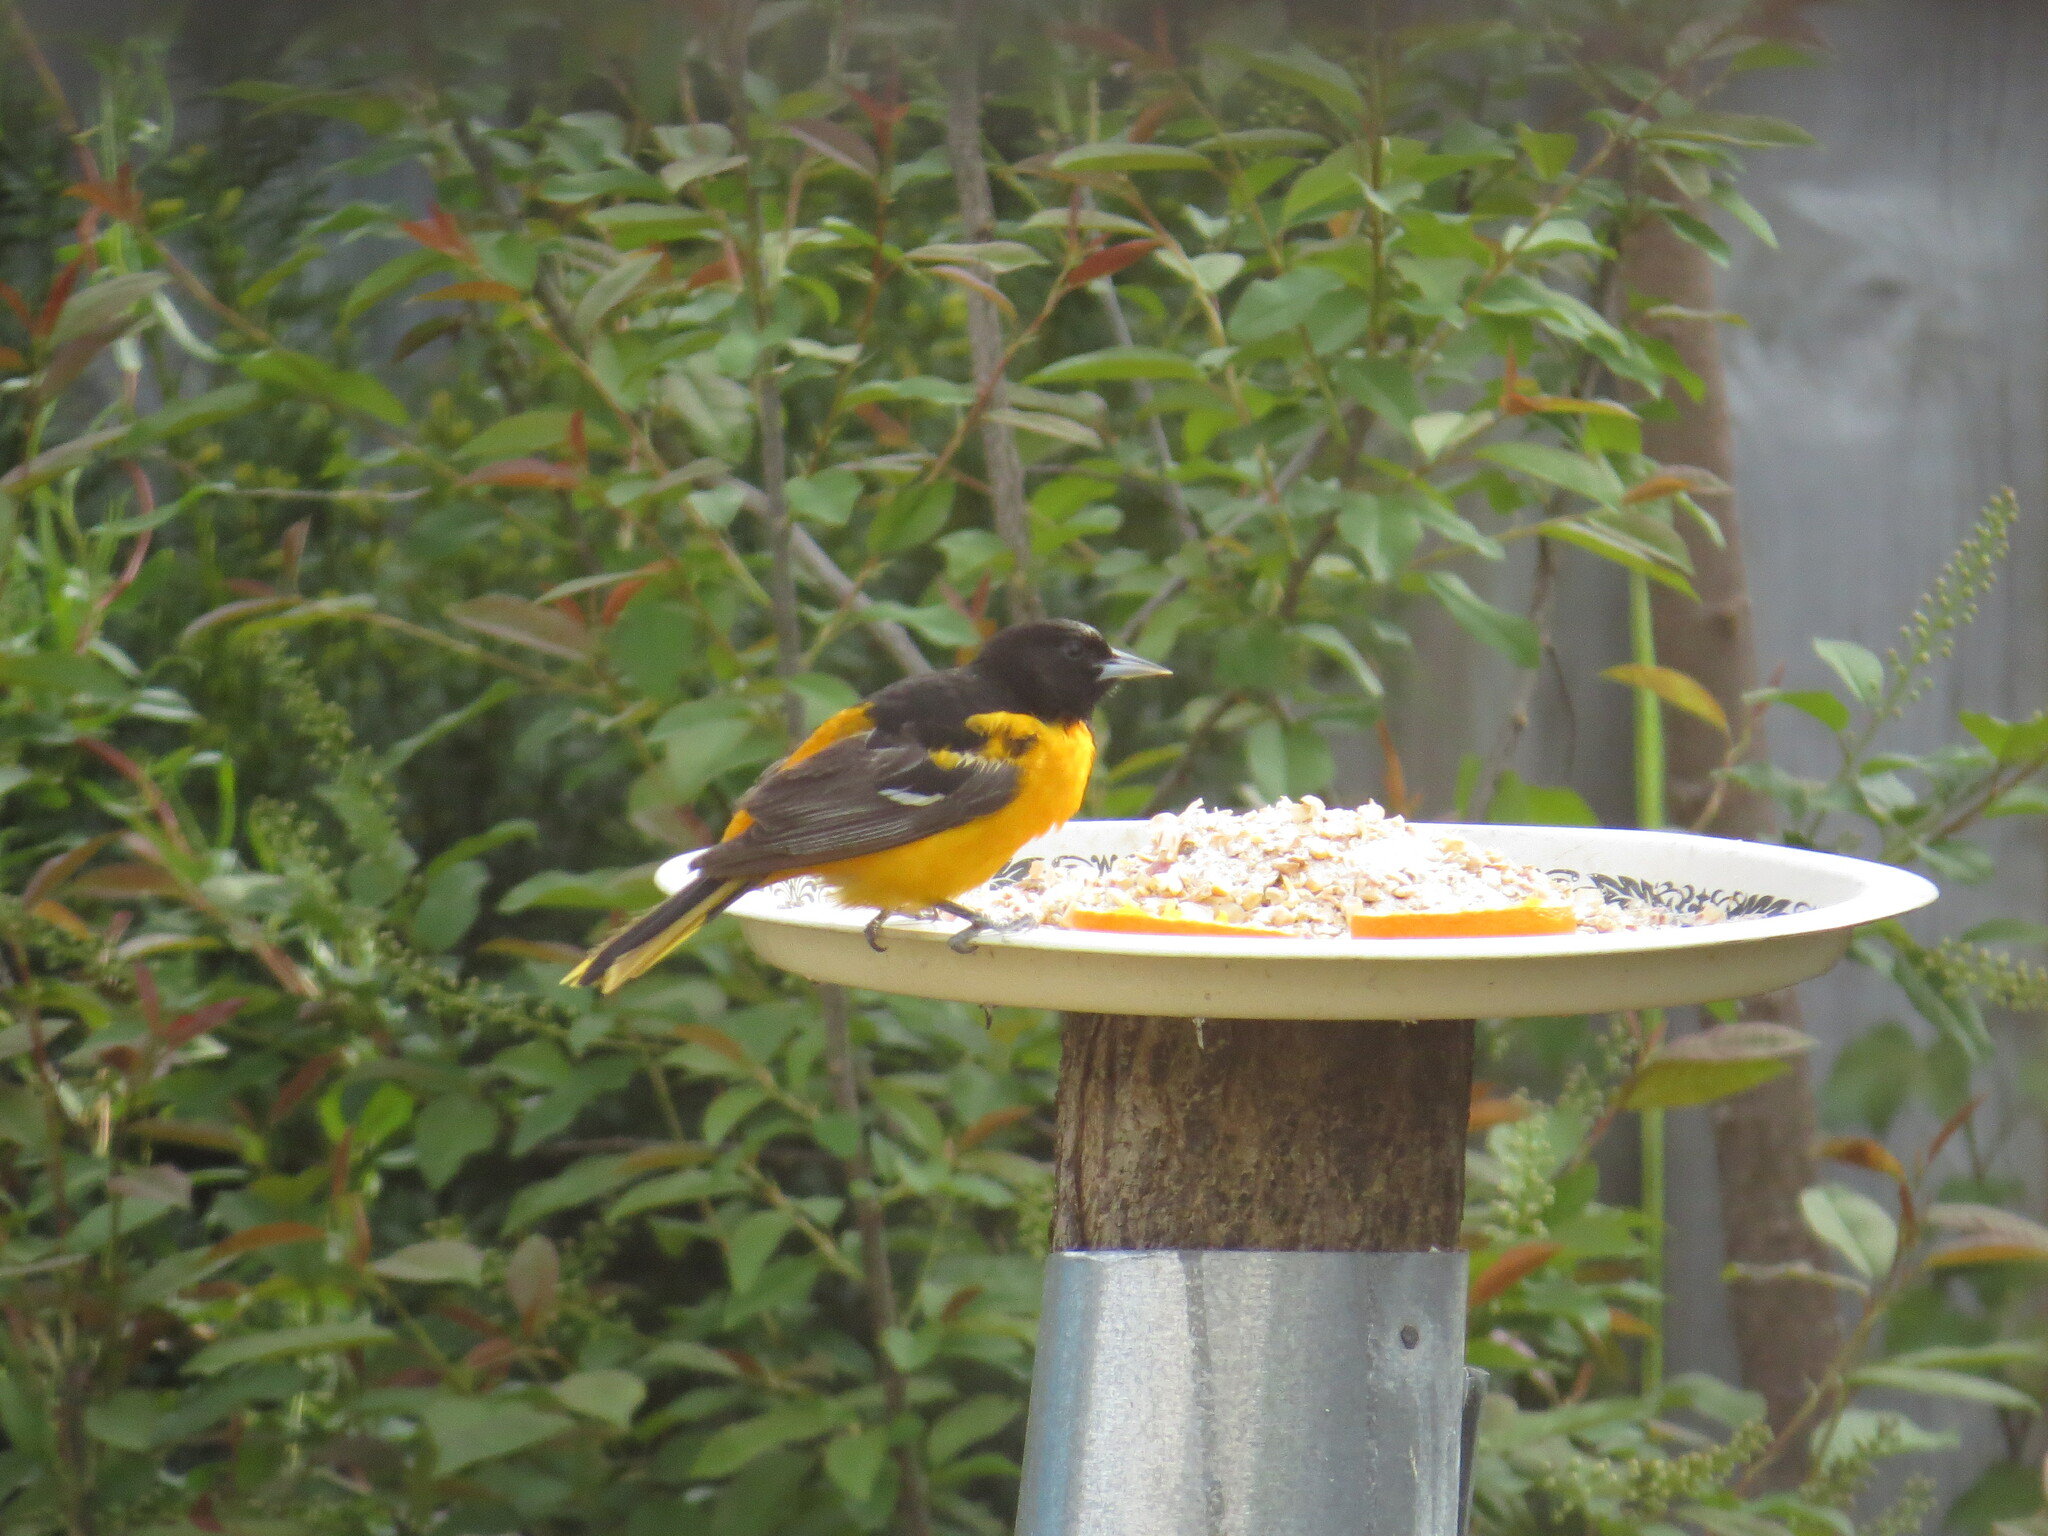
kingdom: Animalia
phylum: Chordata
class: Aves
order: Passeriformes
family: Icteridae
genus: Icterus
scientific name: Icterus galbula
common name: Baltimore oriole
